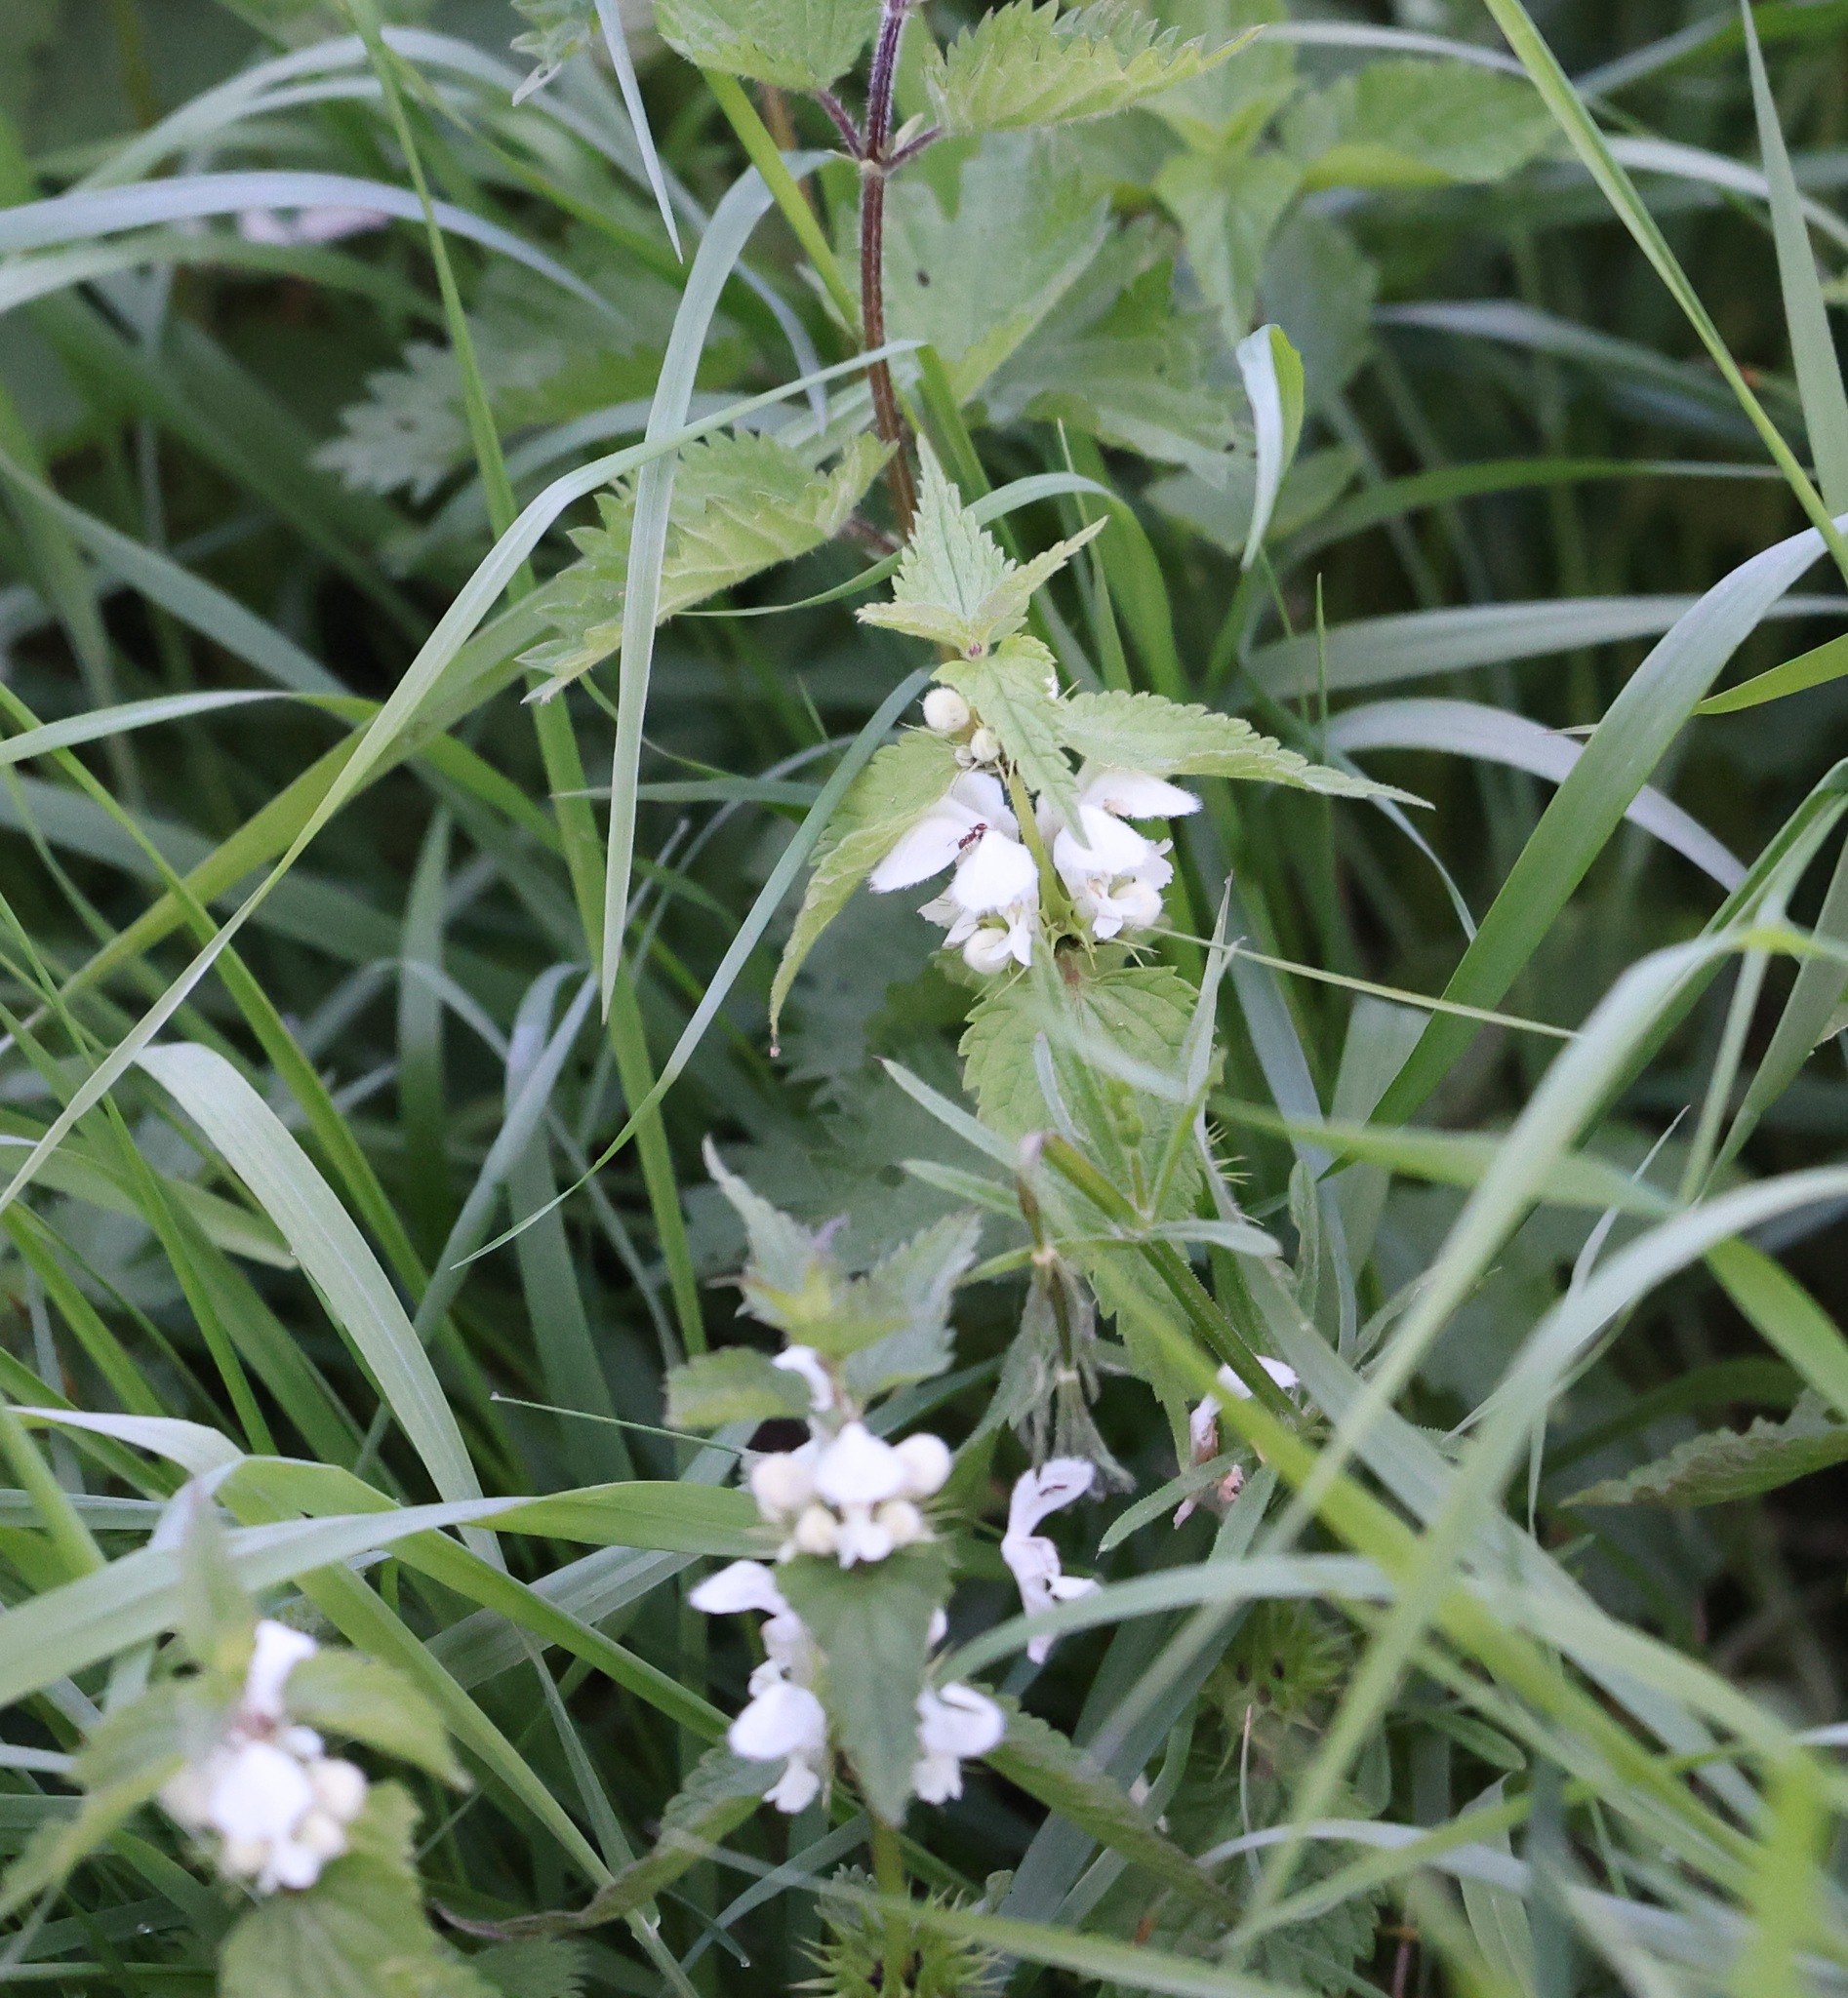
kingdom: Plantae
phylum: Tracheophyta
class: Magnoliopsida
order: Lamiales
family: Lamiaceae
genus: Lamium
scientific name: Lamium album
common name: White dead-nettle
